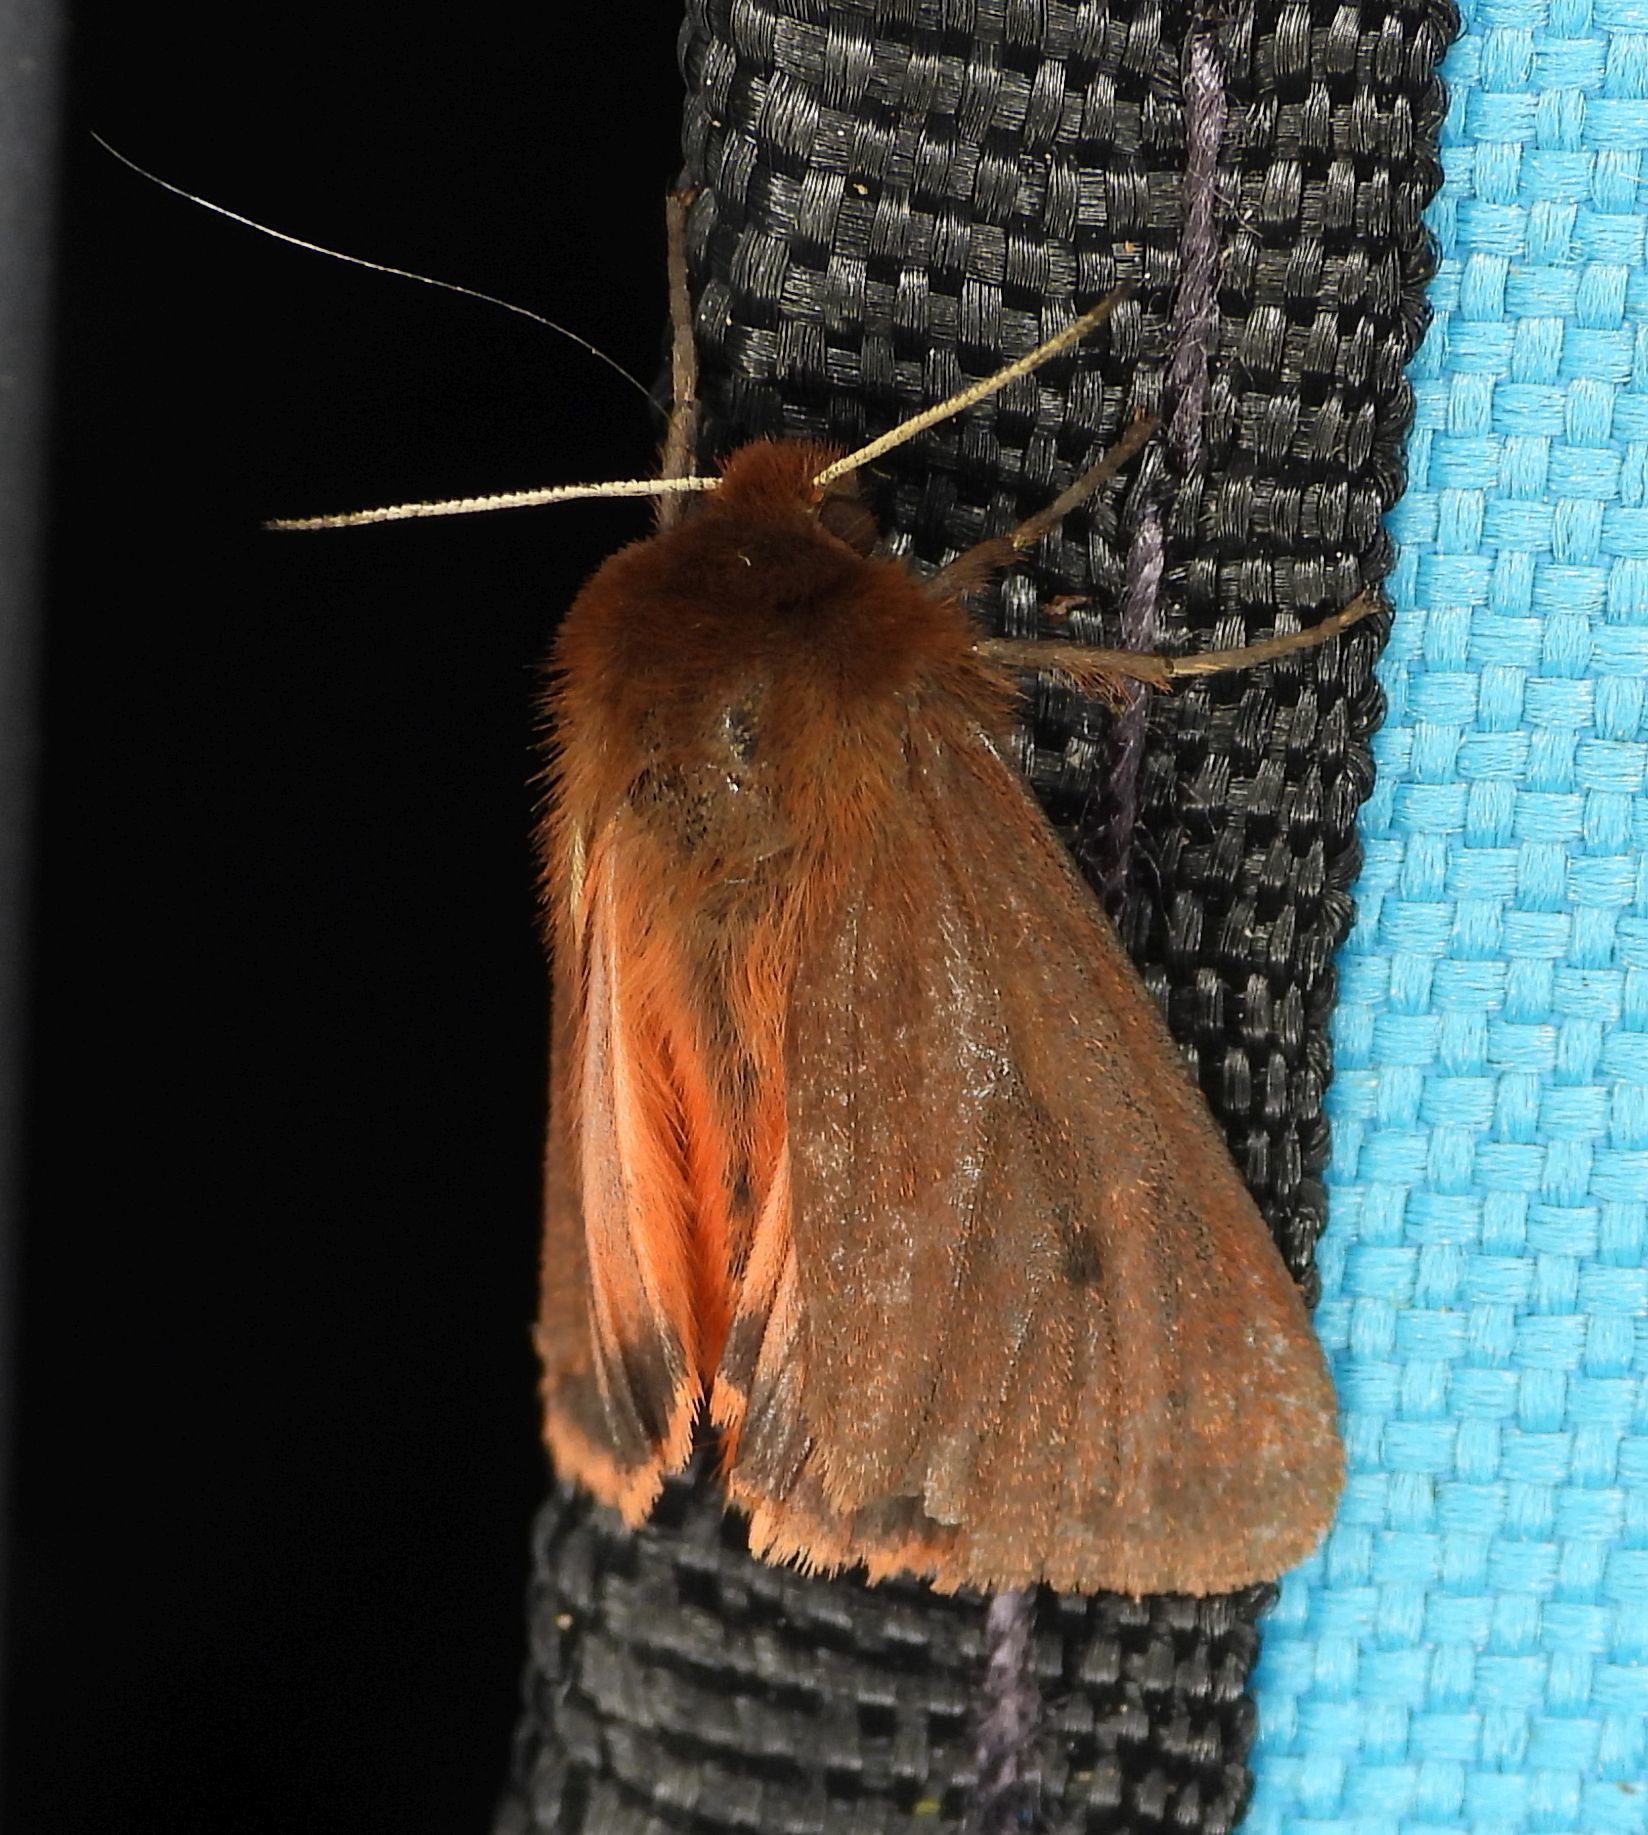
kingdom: Animalia
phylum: Arthropoda
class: Insecta
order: Lepidoptera
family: Erebidae
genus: Phragmatobia
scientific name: Phragmatobia fuliginosa
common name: Ruby tiger
